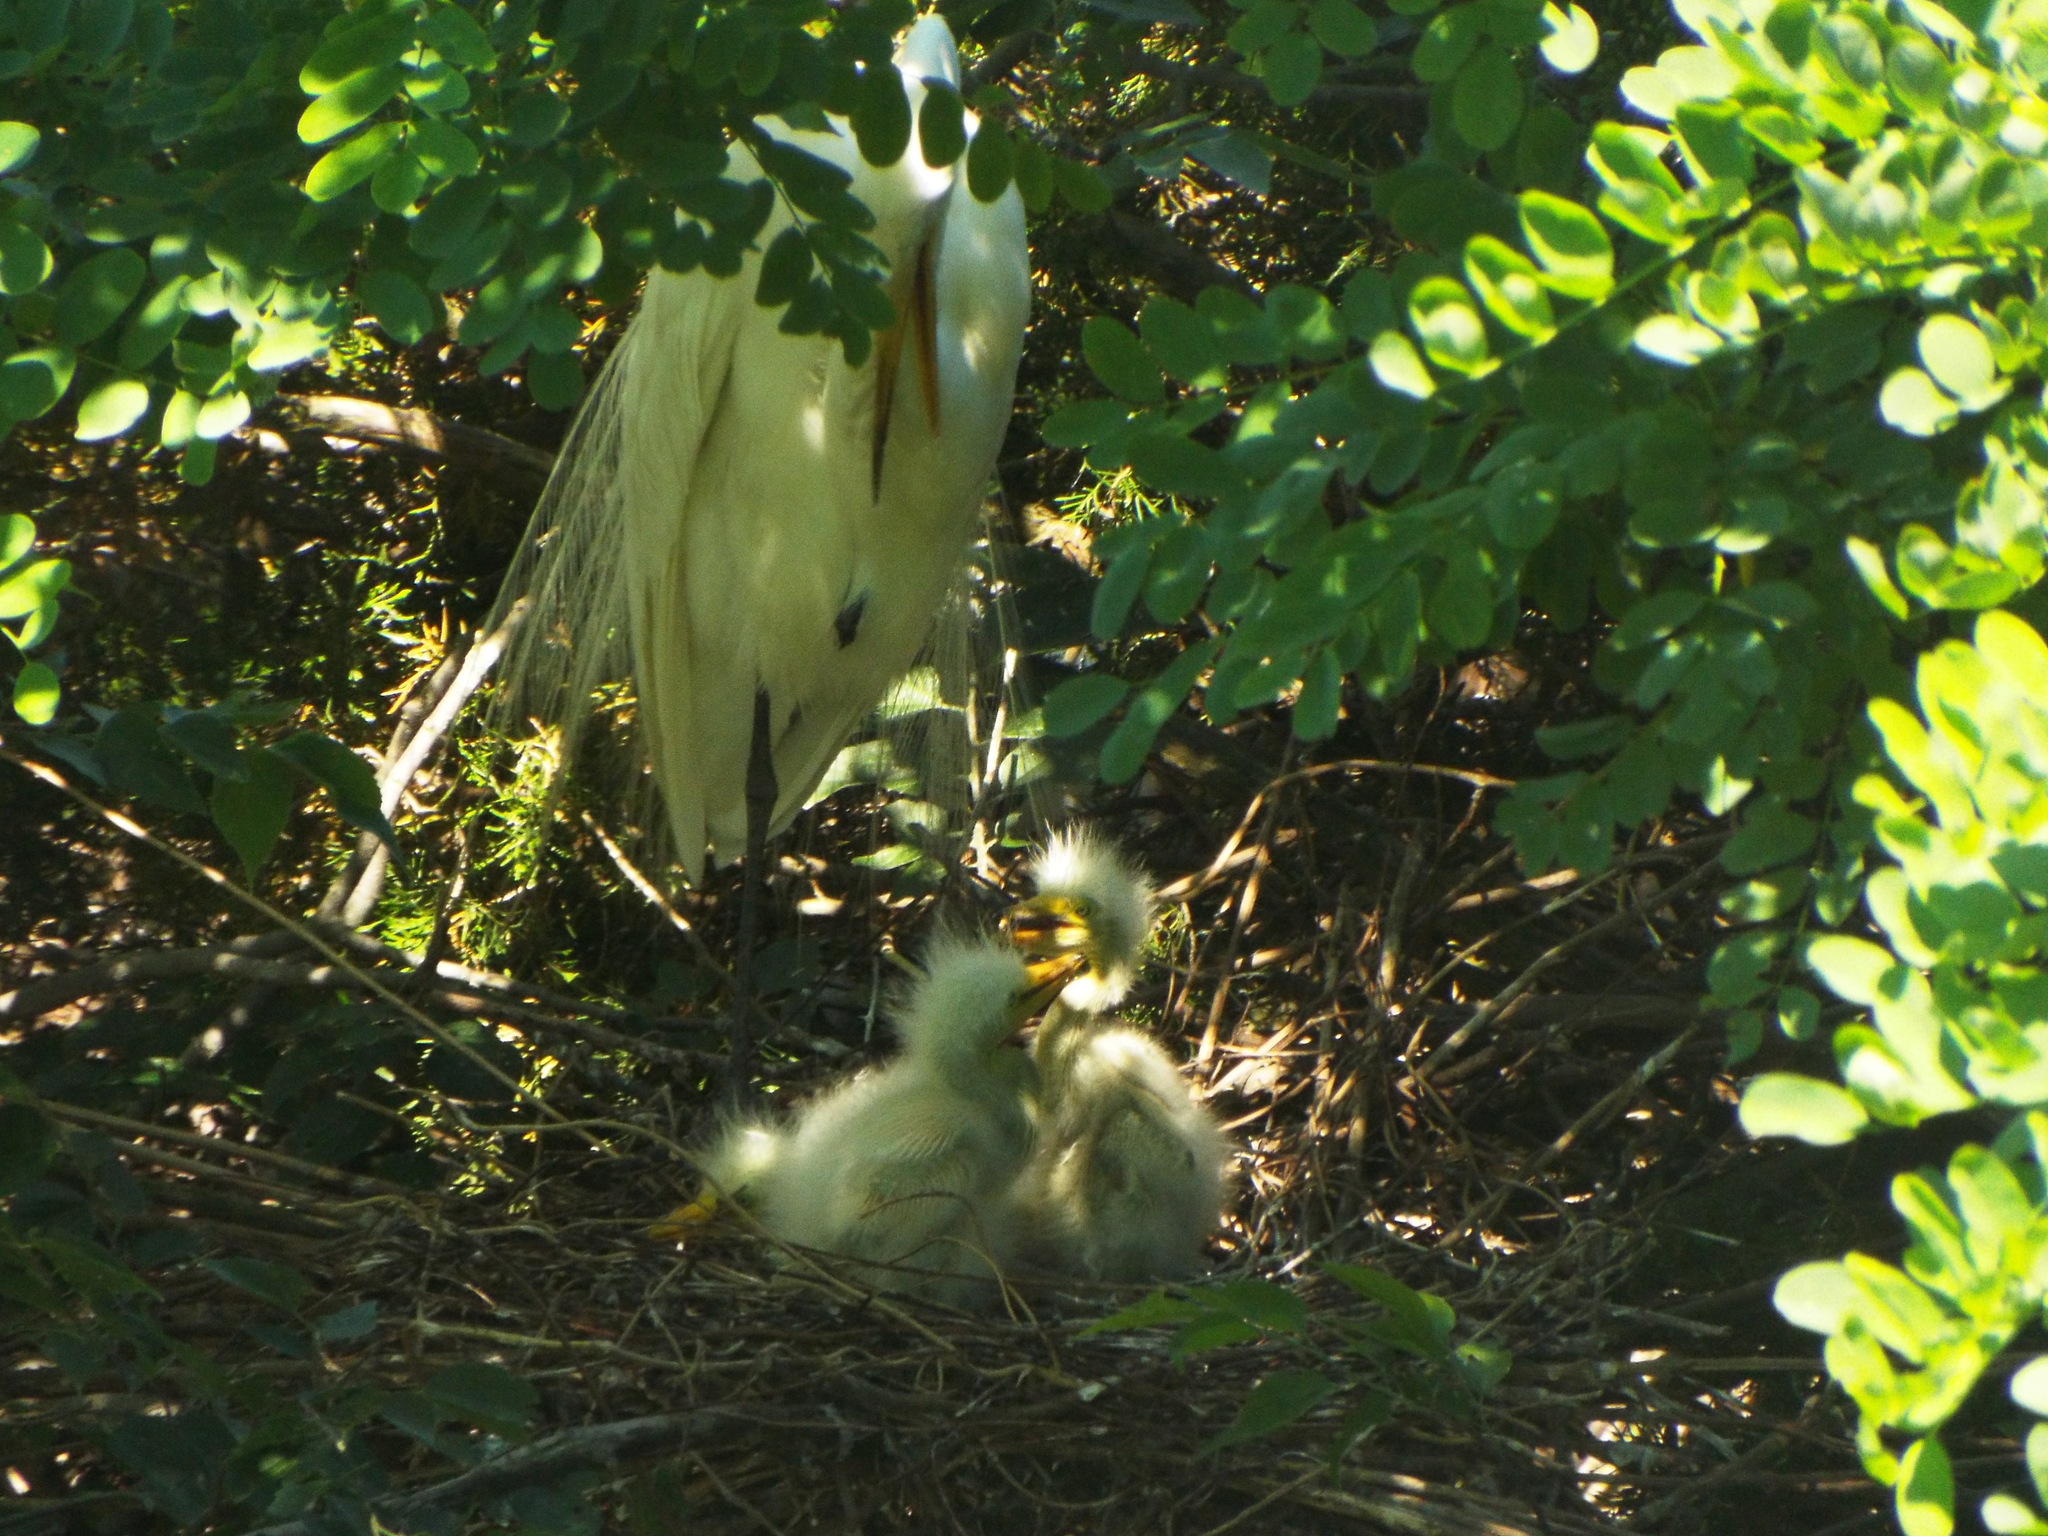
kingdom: Animalia
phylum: Chordata
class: Aves
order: Pelecaniformes
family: Ardeidae
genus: Ardea
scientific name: Ardea alba
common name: Great egret
